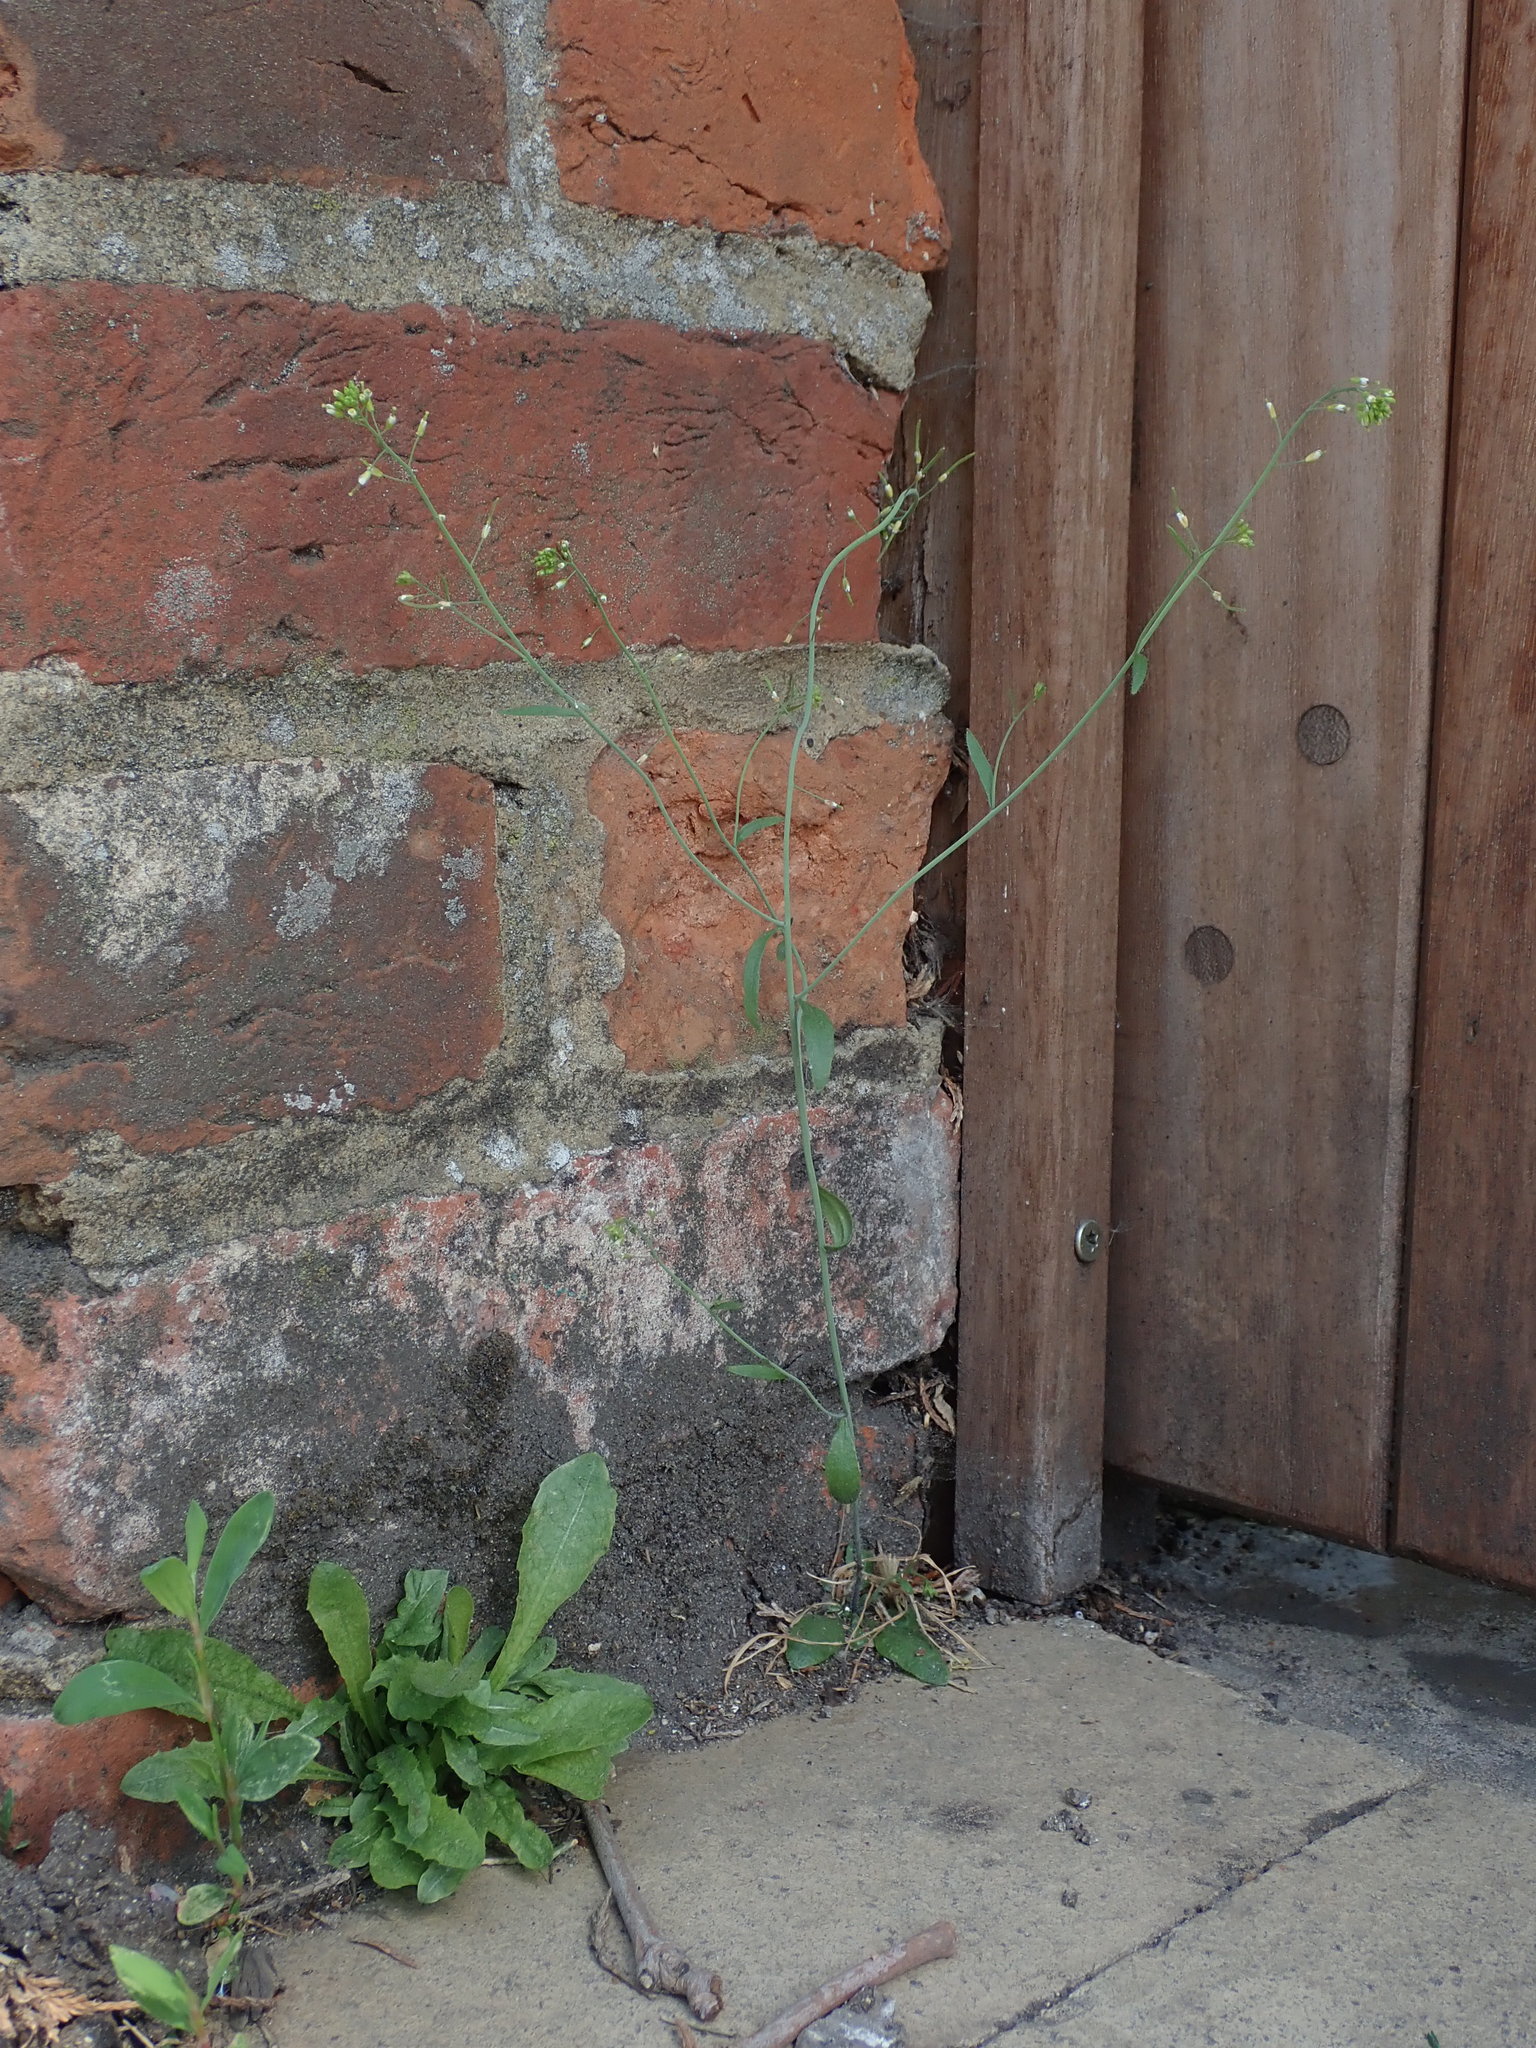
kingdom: Plantae
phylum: Tracheophyta
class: Magnoliopsida
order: Brassicales
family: Brassicaceae
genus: Arabidopsis
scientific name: Arabidopsis thaliana
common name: Thale cress
